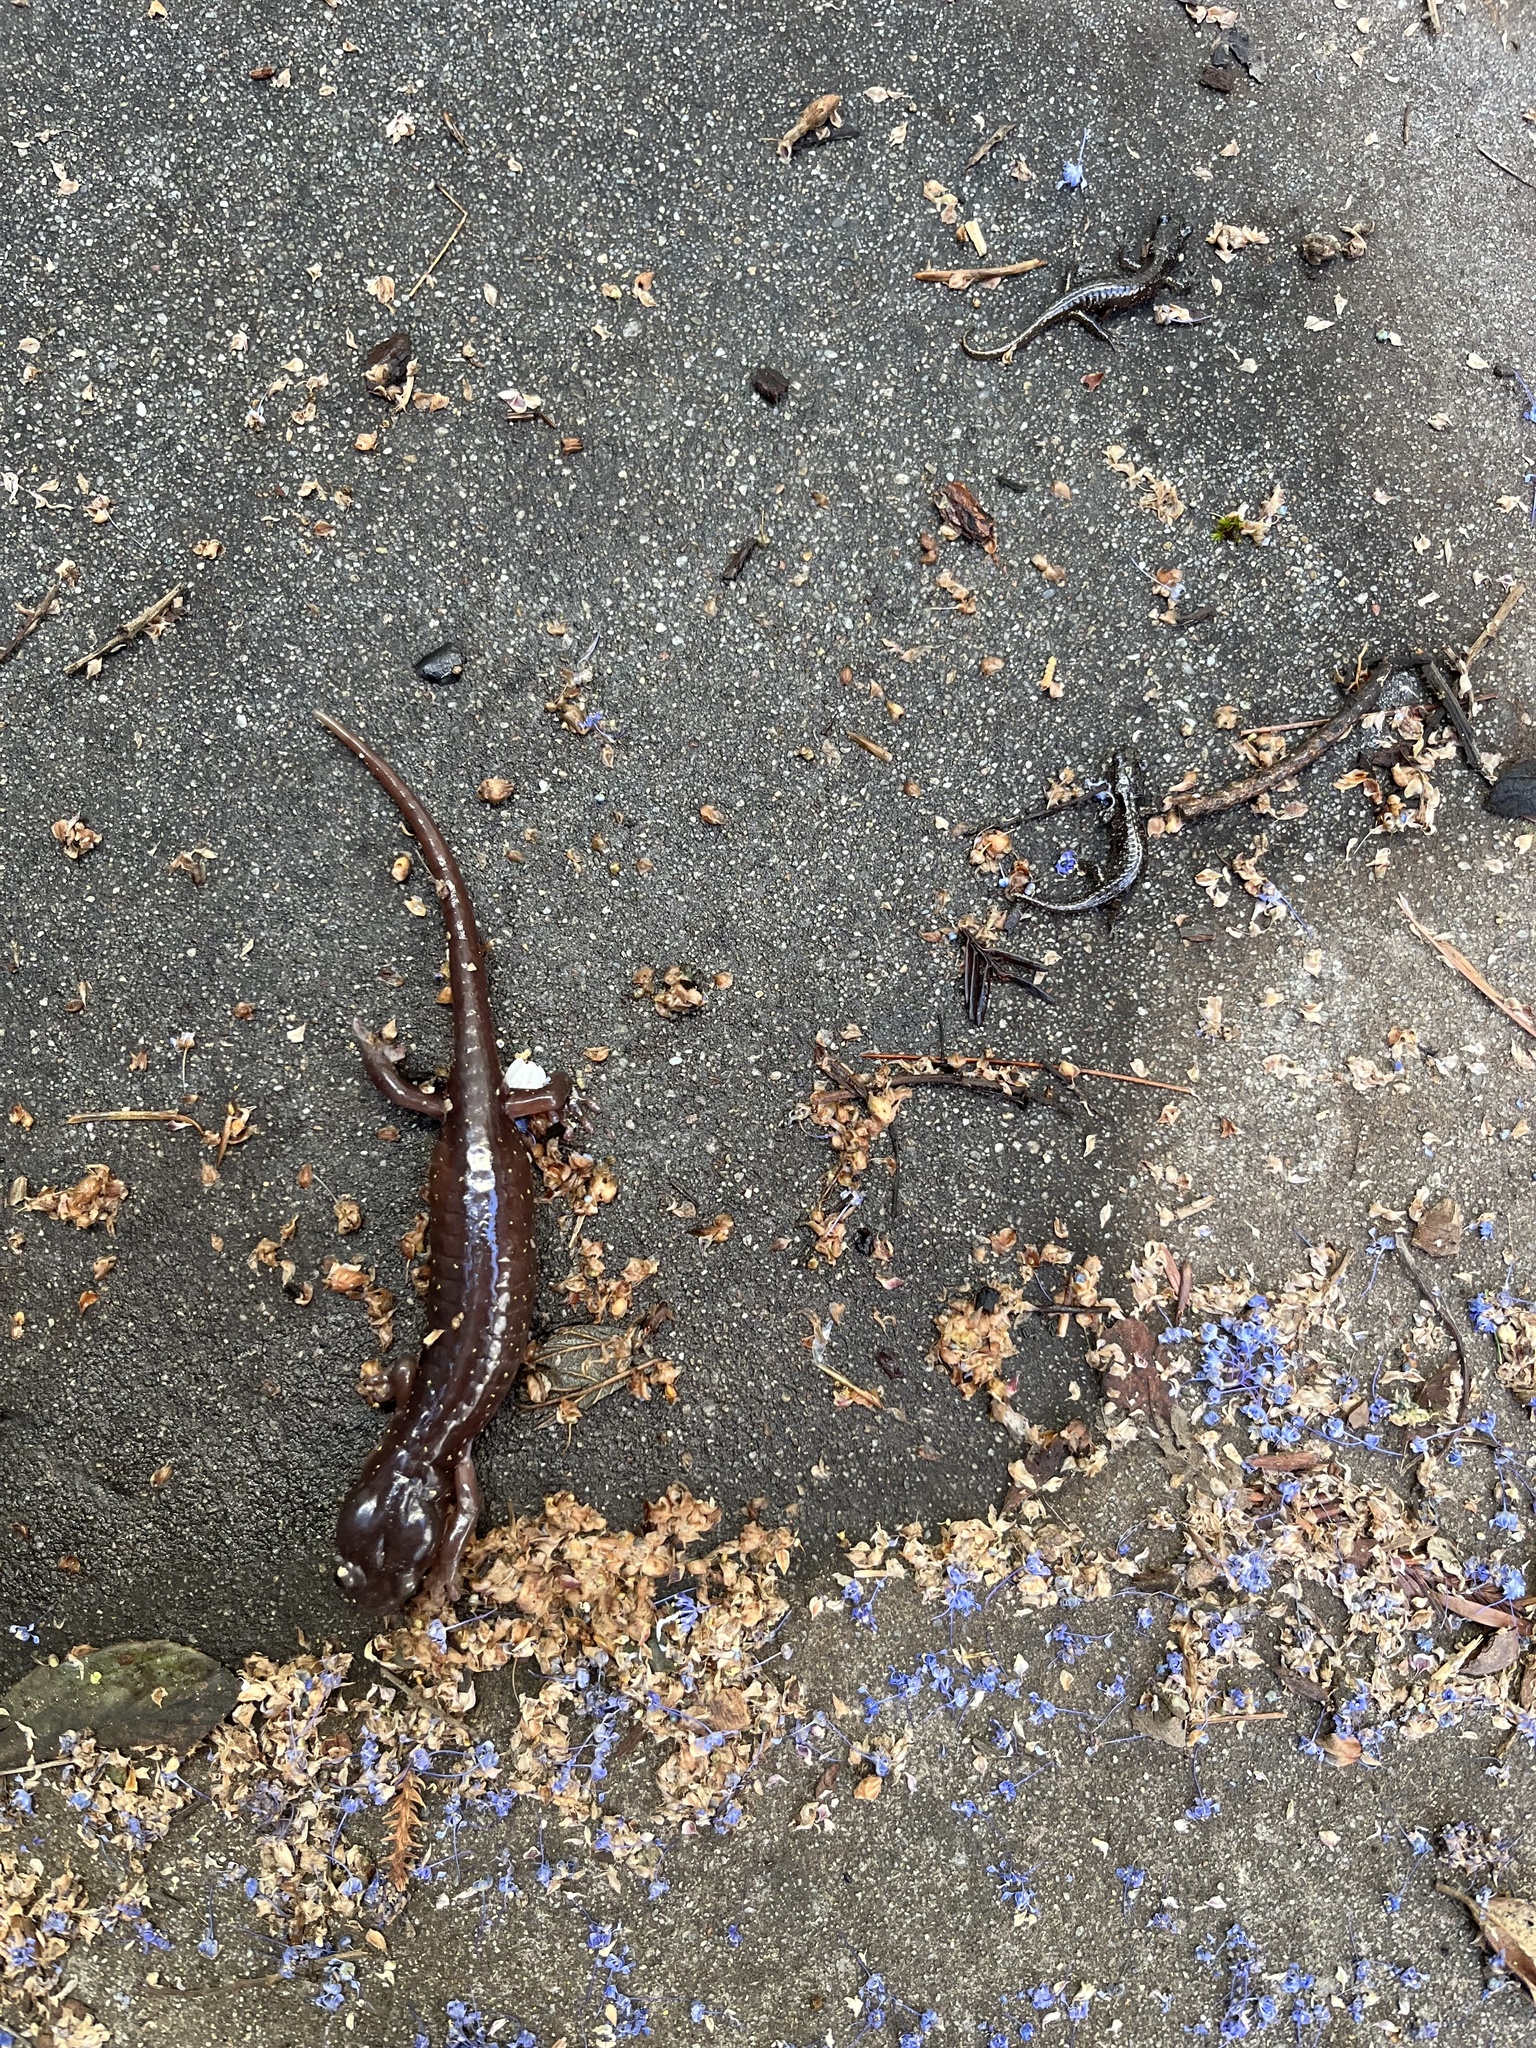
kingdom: Animalia
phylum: Chordata
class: Amphibia
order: Caudata
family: Plethodontidae
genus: Aneides
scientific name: Aneides lugubris
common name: Arboreal salamander
